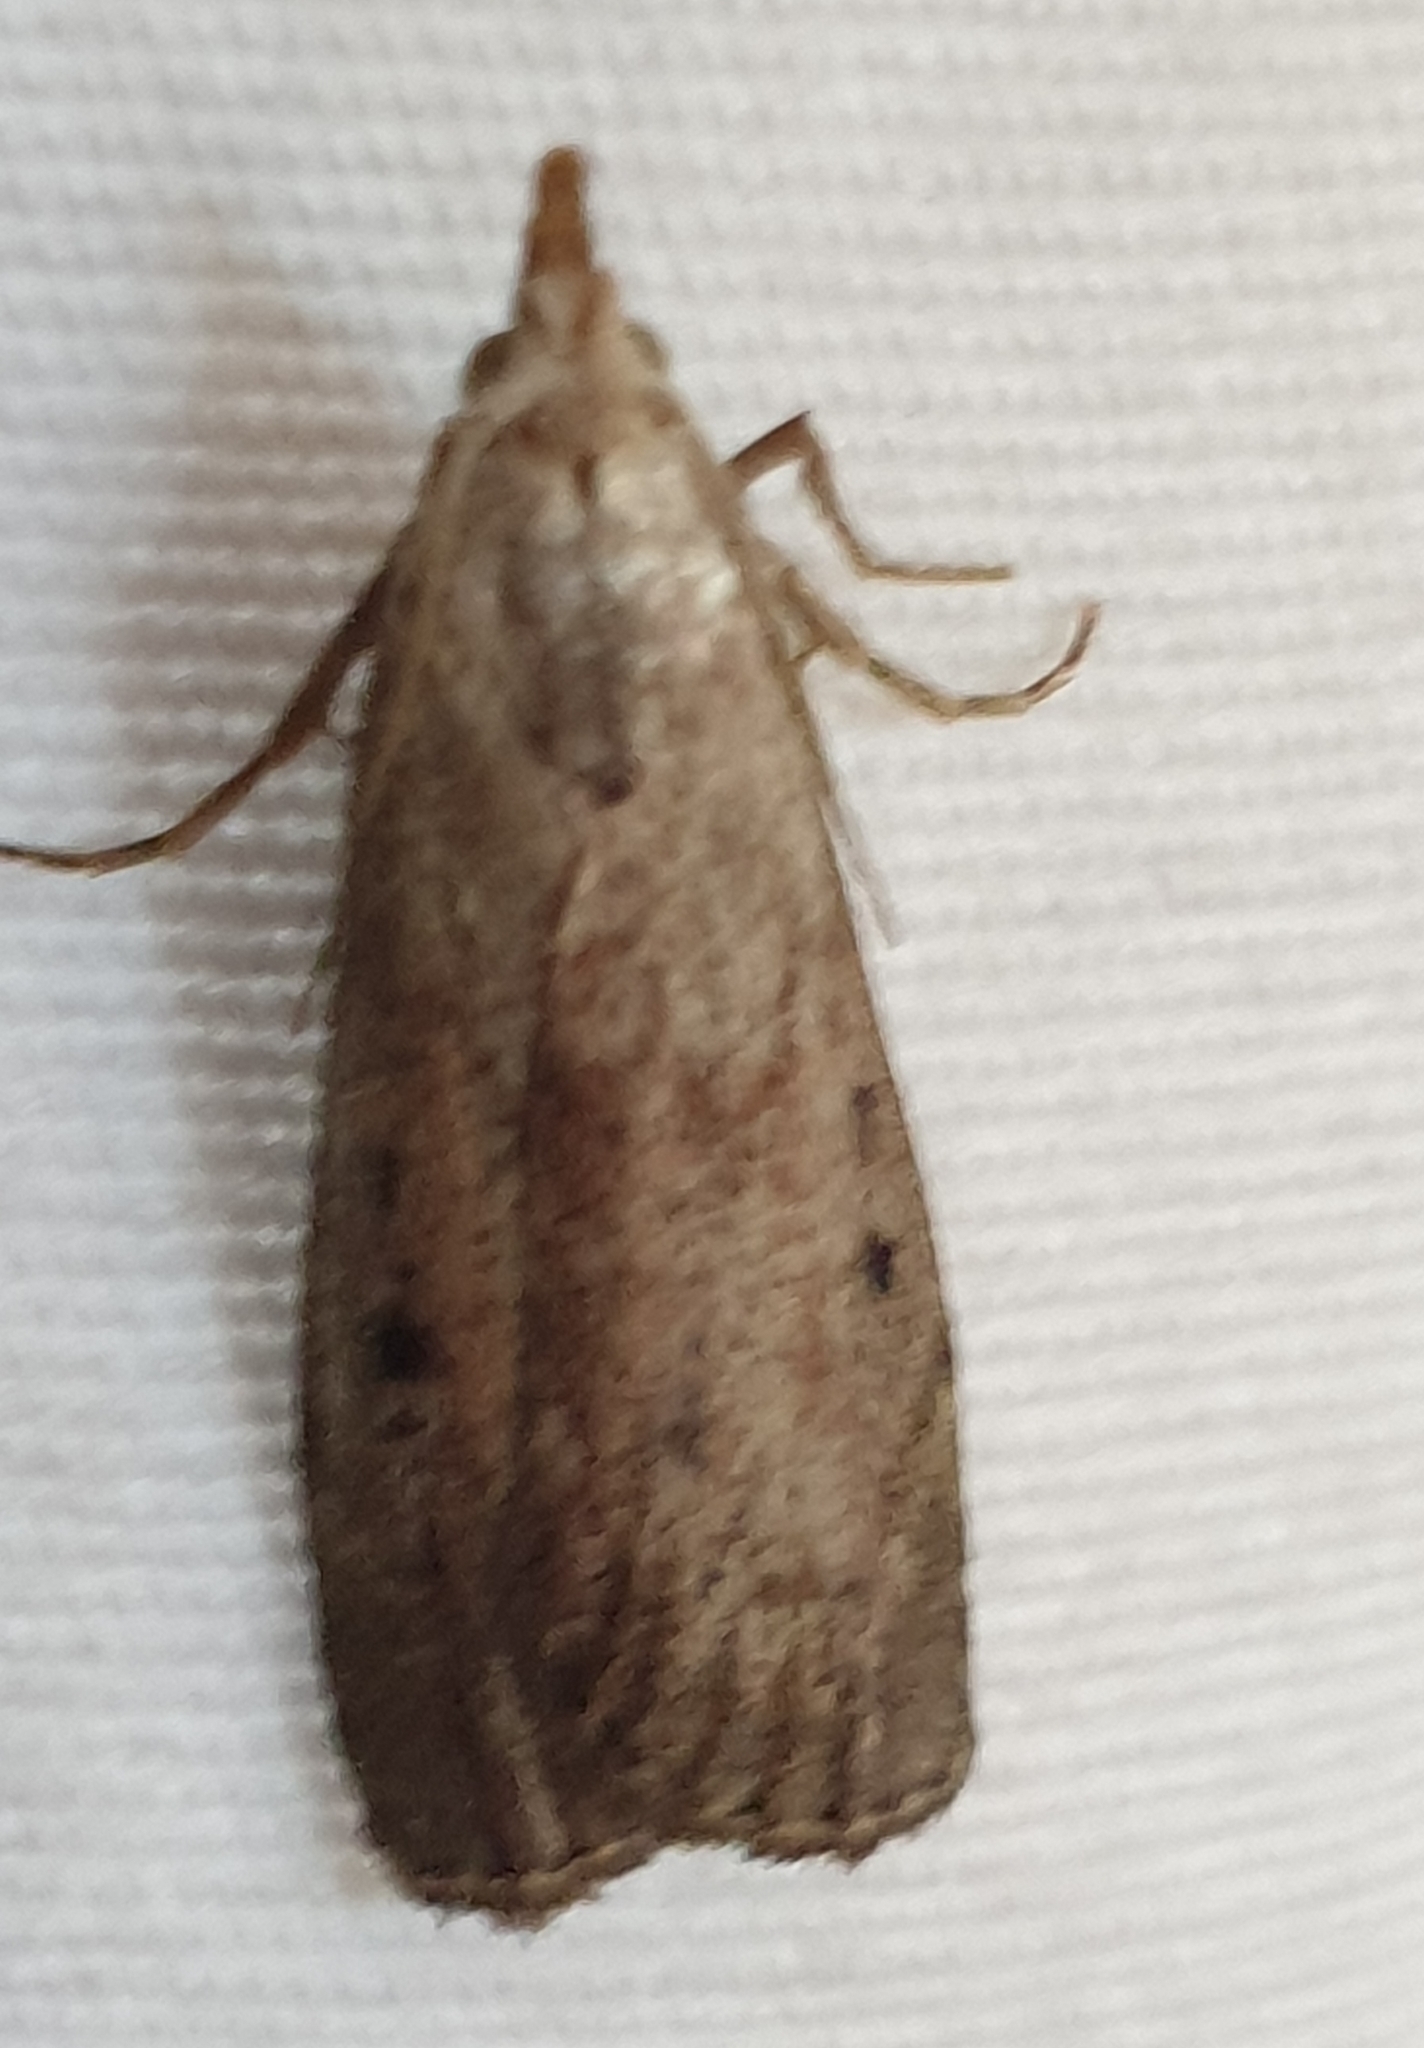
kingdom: Animalia
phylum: Arthropoda
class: Insecta
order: Lepidoptera
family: Pyralidae
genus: Aphomia
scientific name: Aphomia sociella
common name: Bee moth
